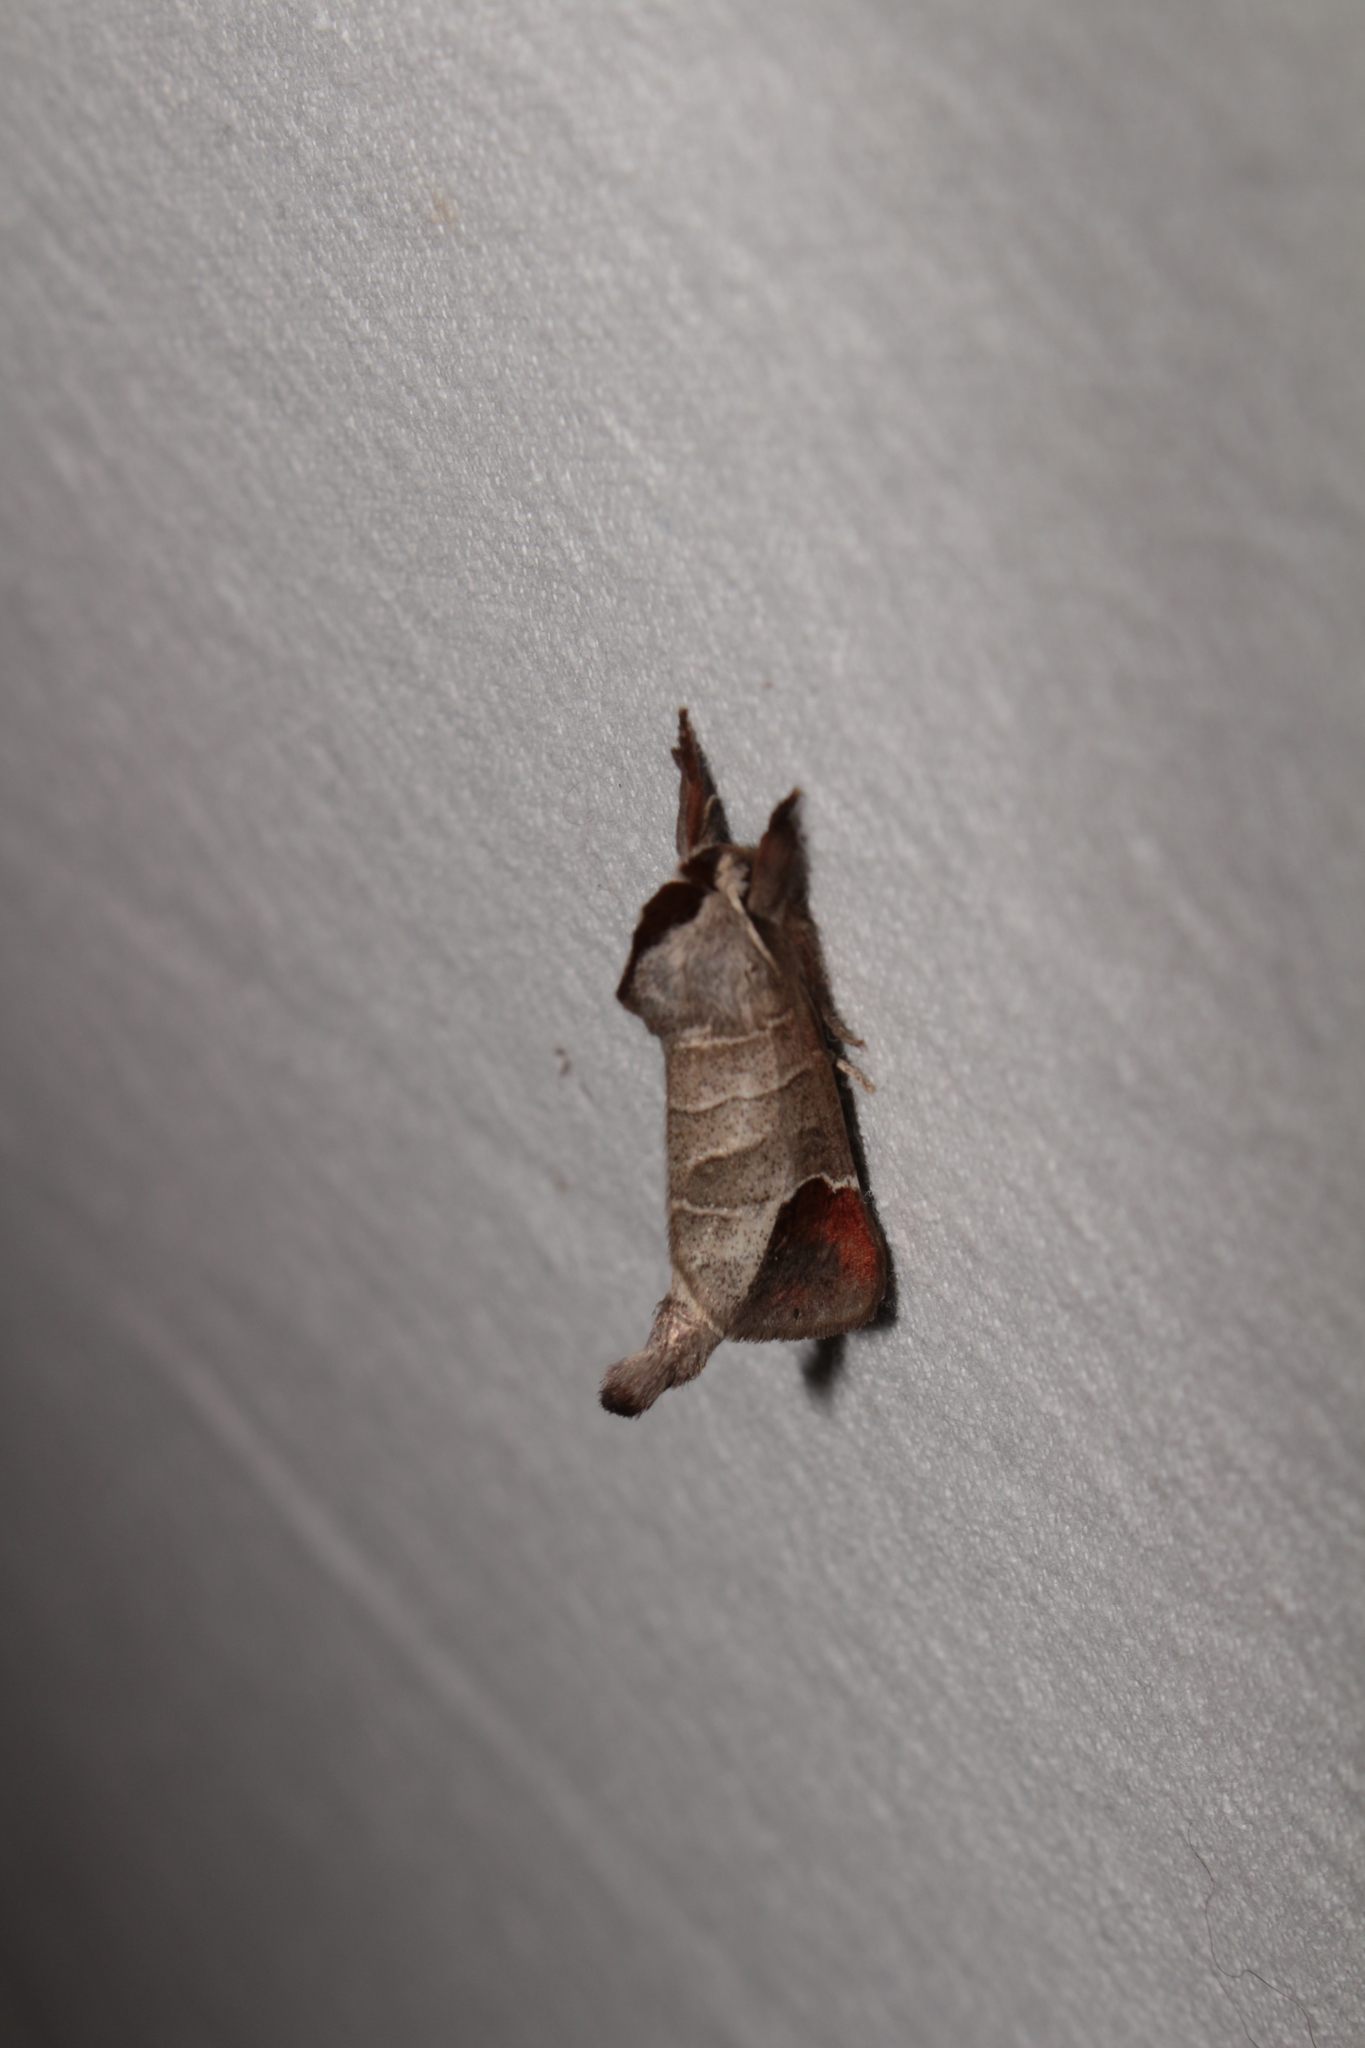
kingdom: Animalia
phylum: Arthropoda
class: Insecta
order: Lepidoptera
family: Notodontidae
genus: Clostera
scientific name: Clostera curtula
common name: Chocolate-tip
